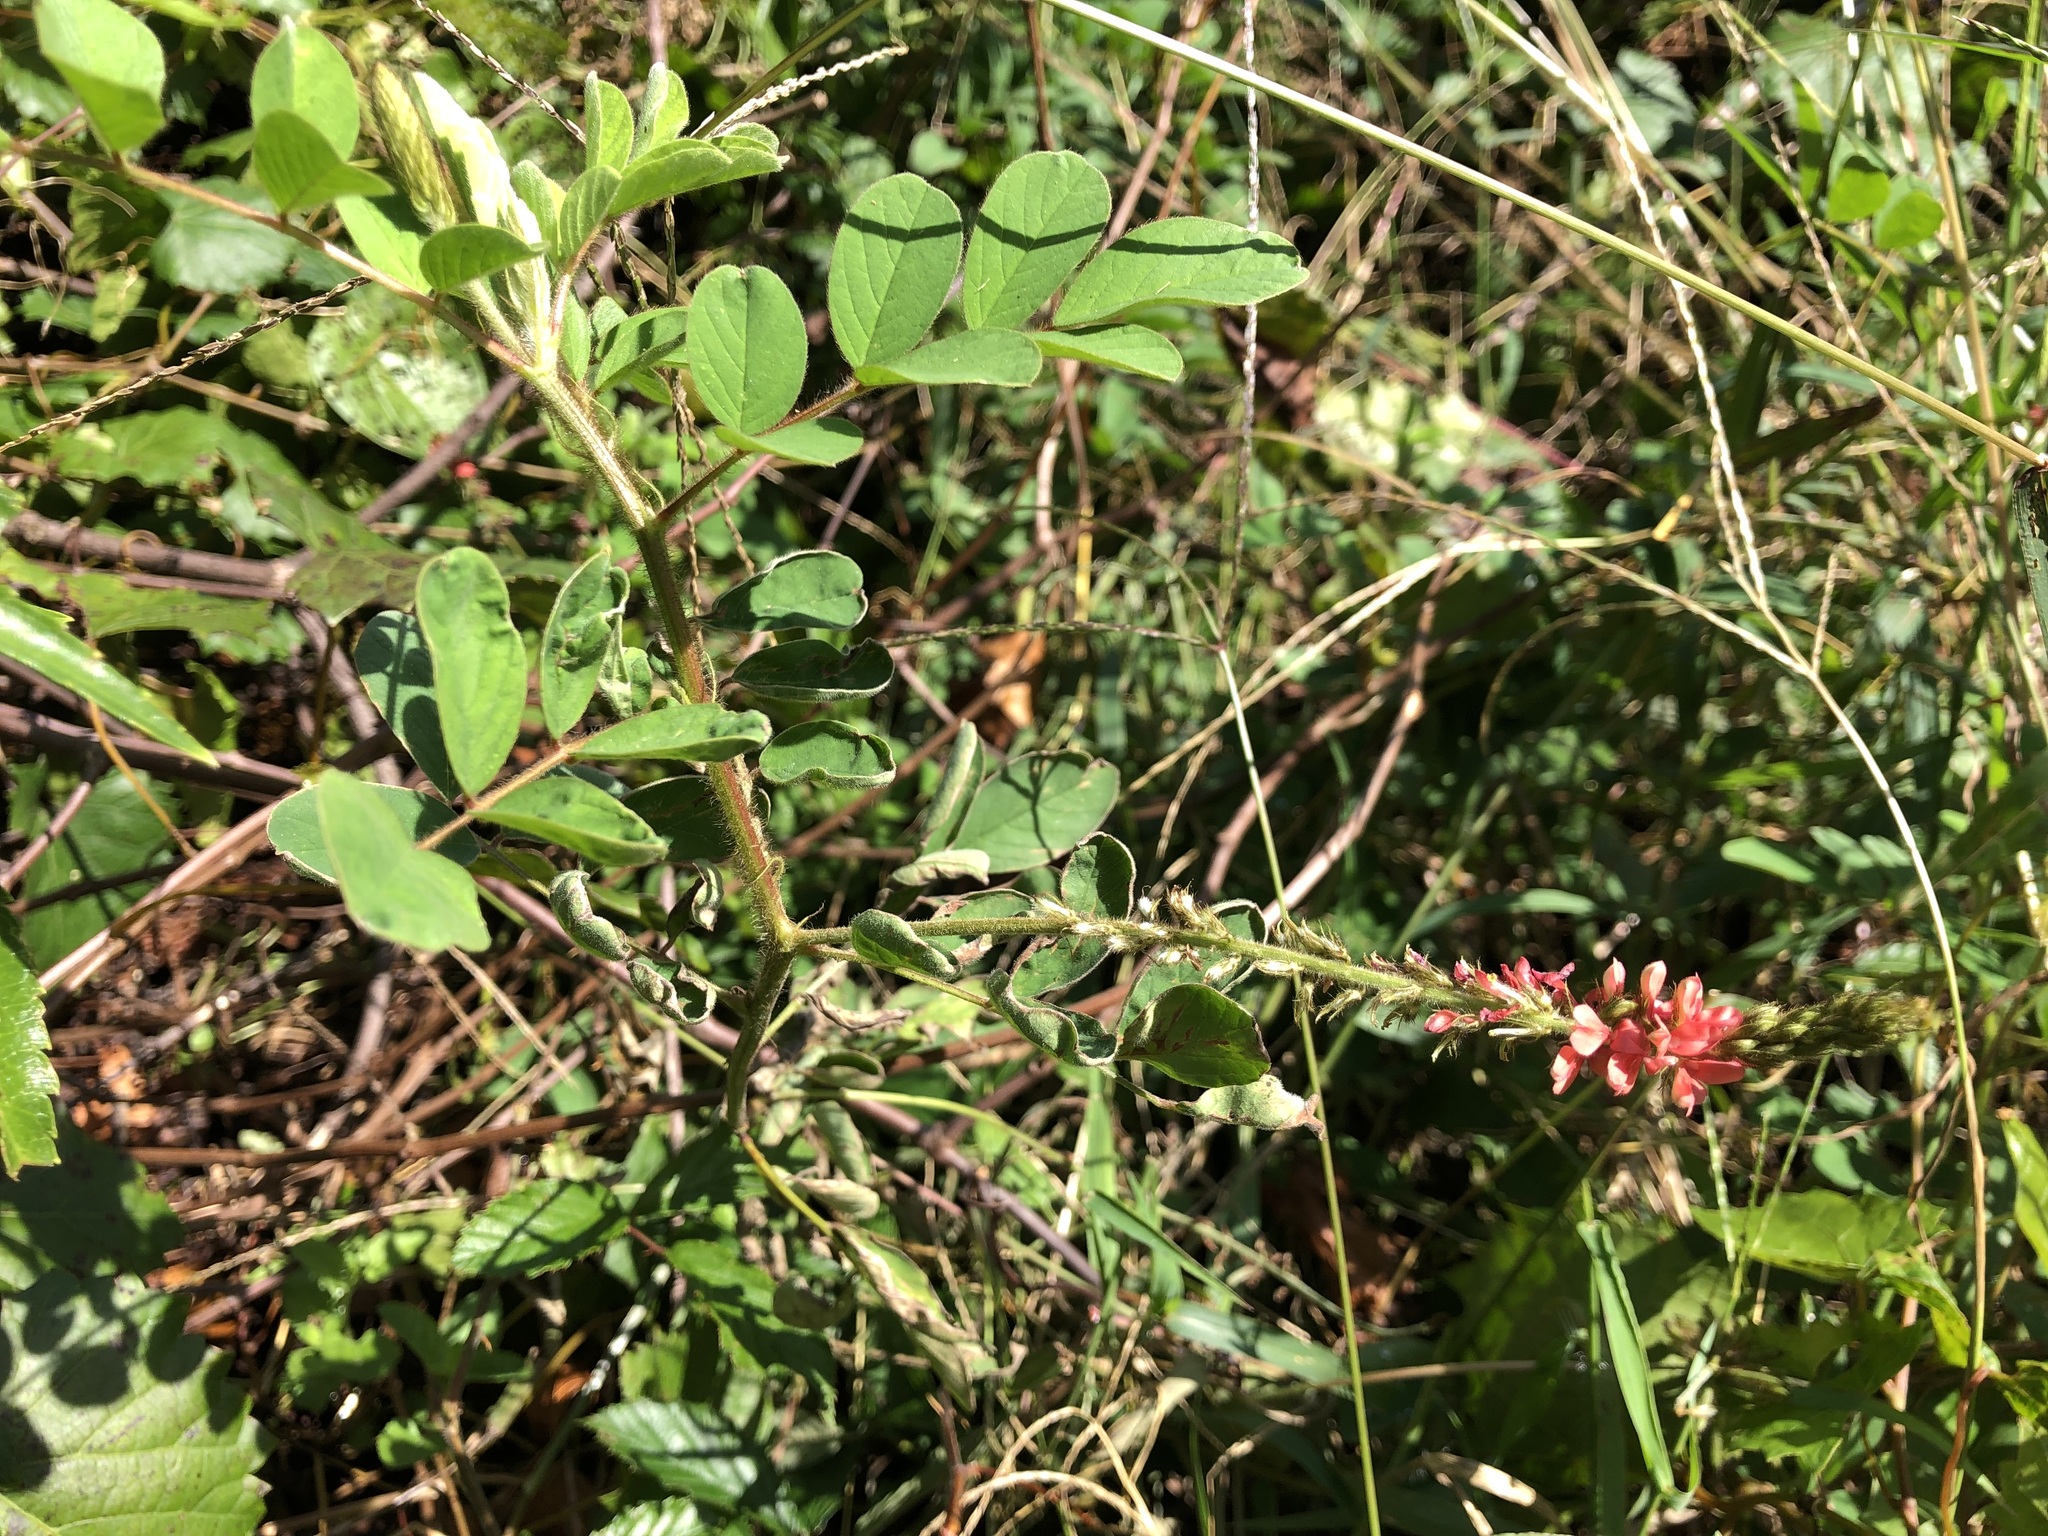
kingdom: Plantae
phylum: Tracheophyta
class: Magnoliopsida
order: Fabales
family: Fabaceae
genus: Indigofera
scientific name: Indigofera hirsuta
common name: Hairy indigo
